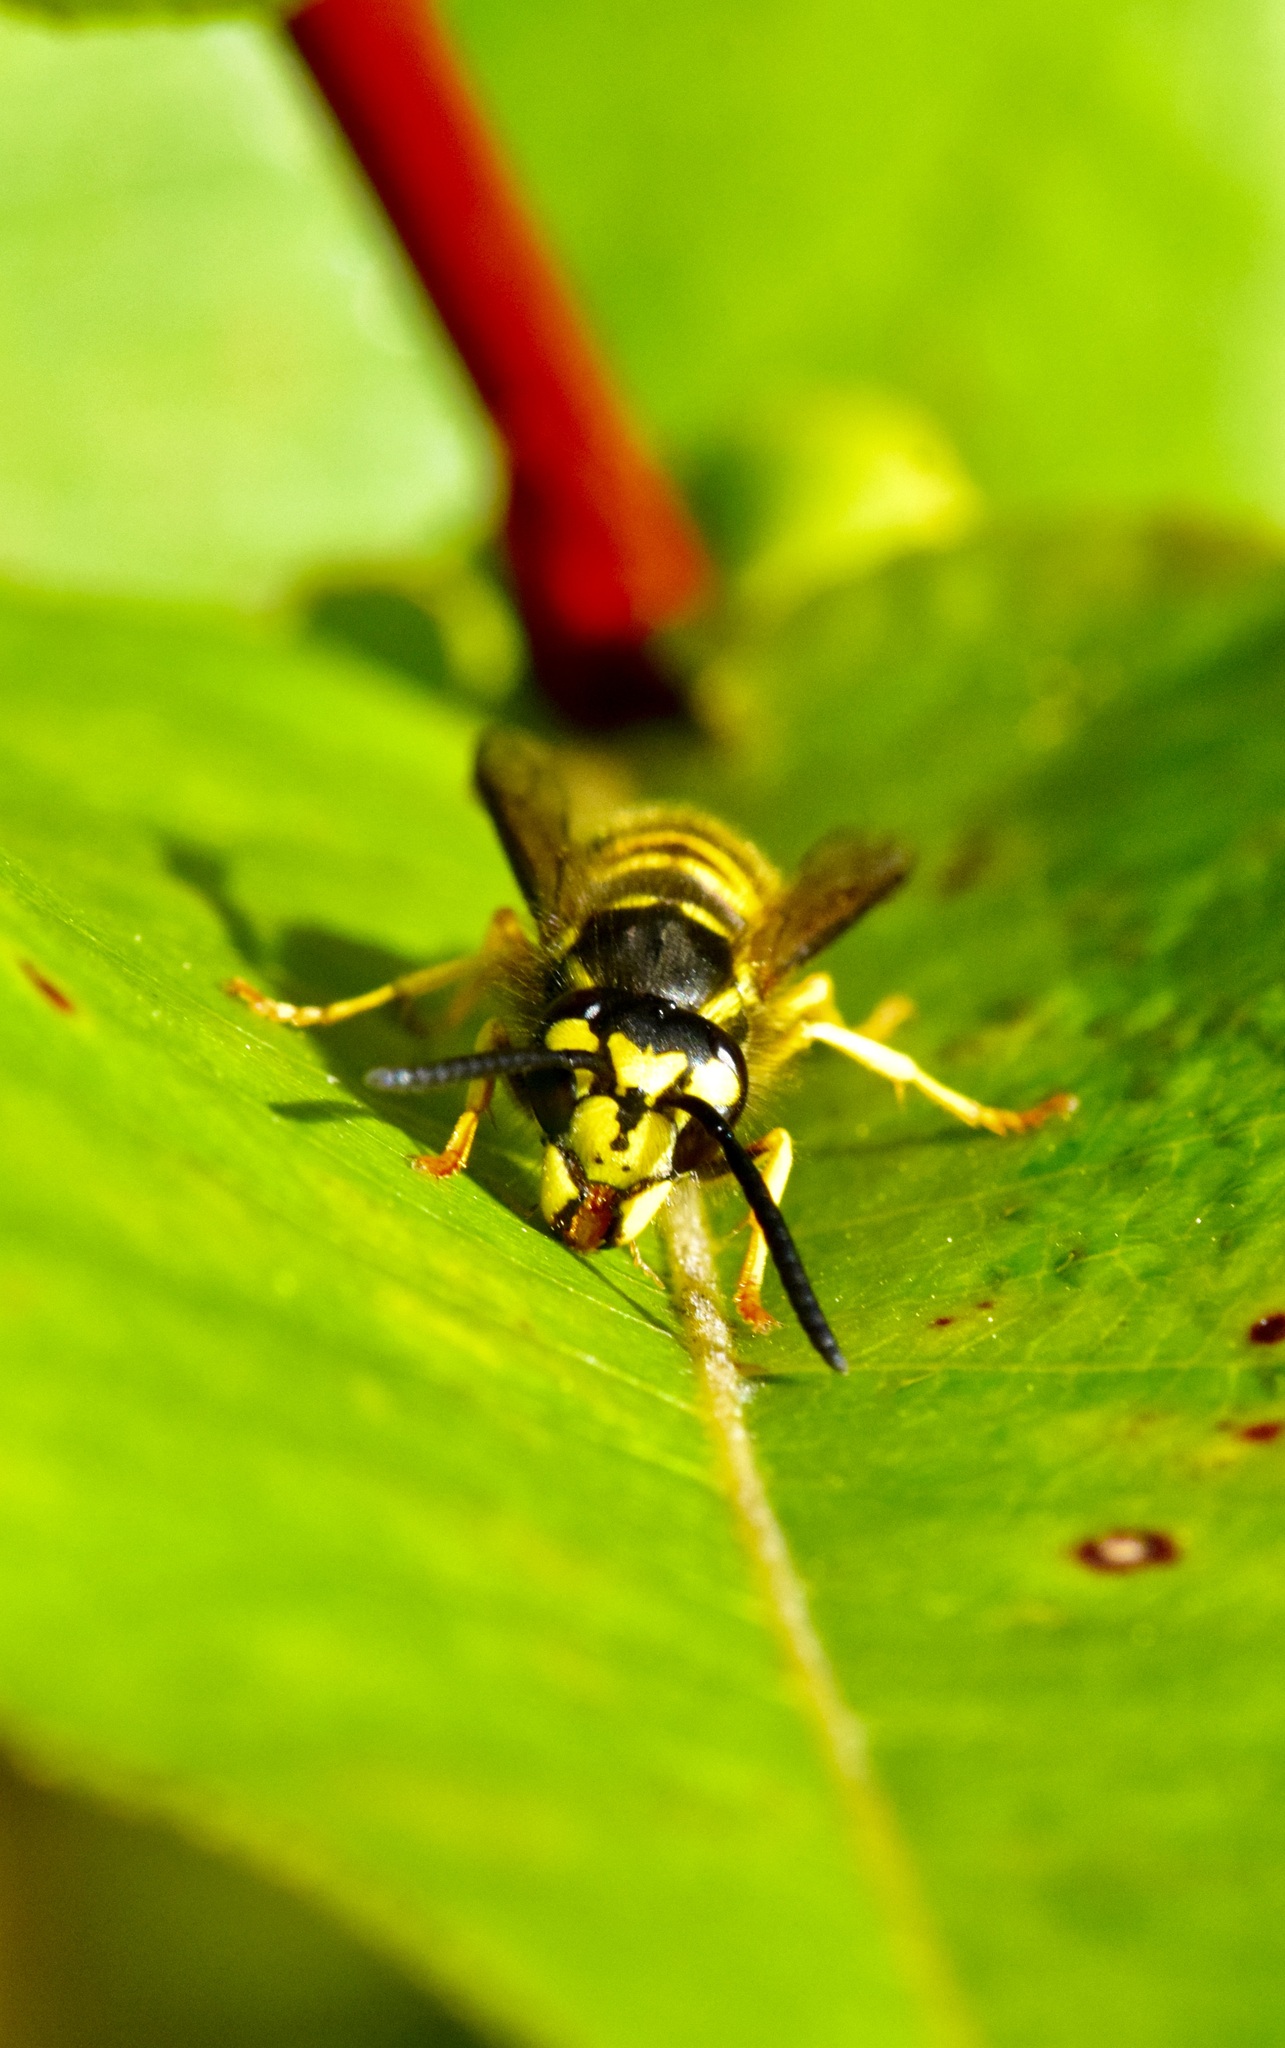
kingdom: Animalia
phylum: Arthropoda
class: Insecta
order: Hymenoptera
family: Vespidae
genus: Vespula
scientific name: Vespula maculifrons
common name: Eastern yellowjacket
